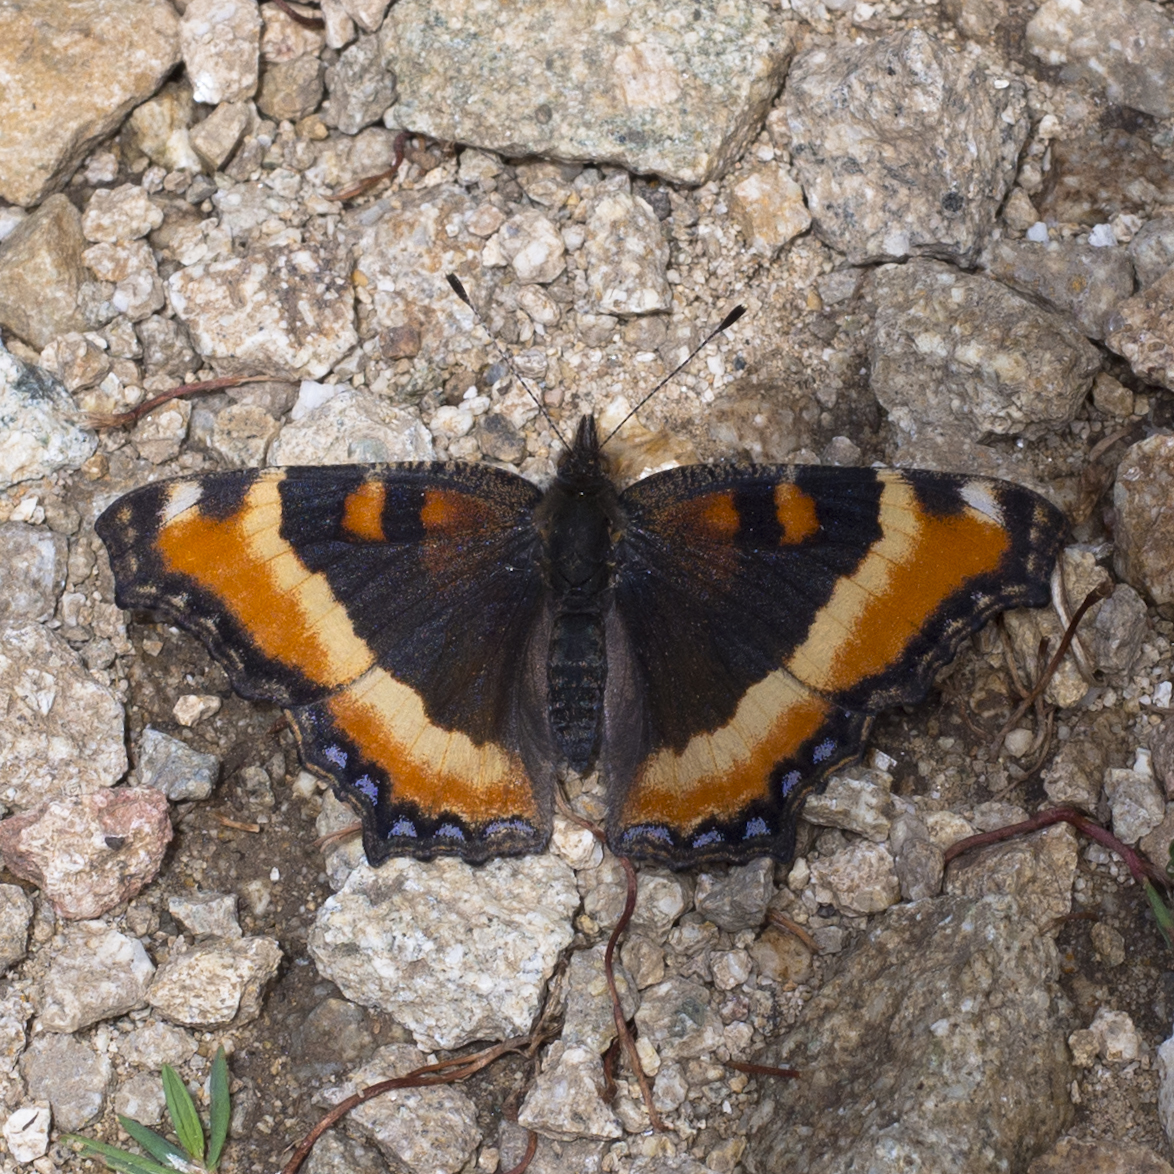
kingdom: Animalia
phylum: Arthropoda
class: Insecta
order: Lepidoptera
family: Nymphalidae
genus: Aglais
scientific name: Aglais milberti
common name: Milbert's tortoiseshell
